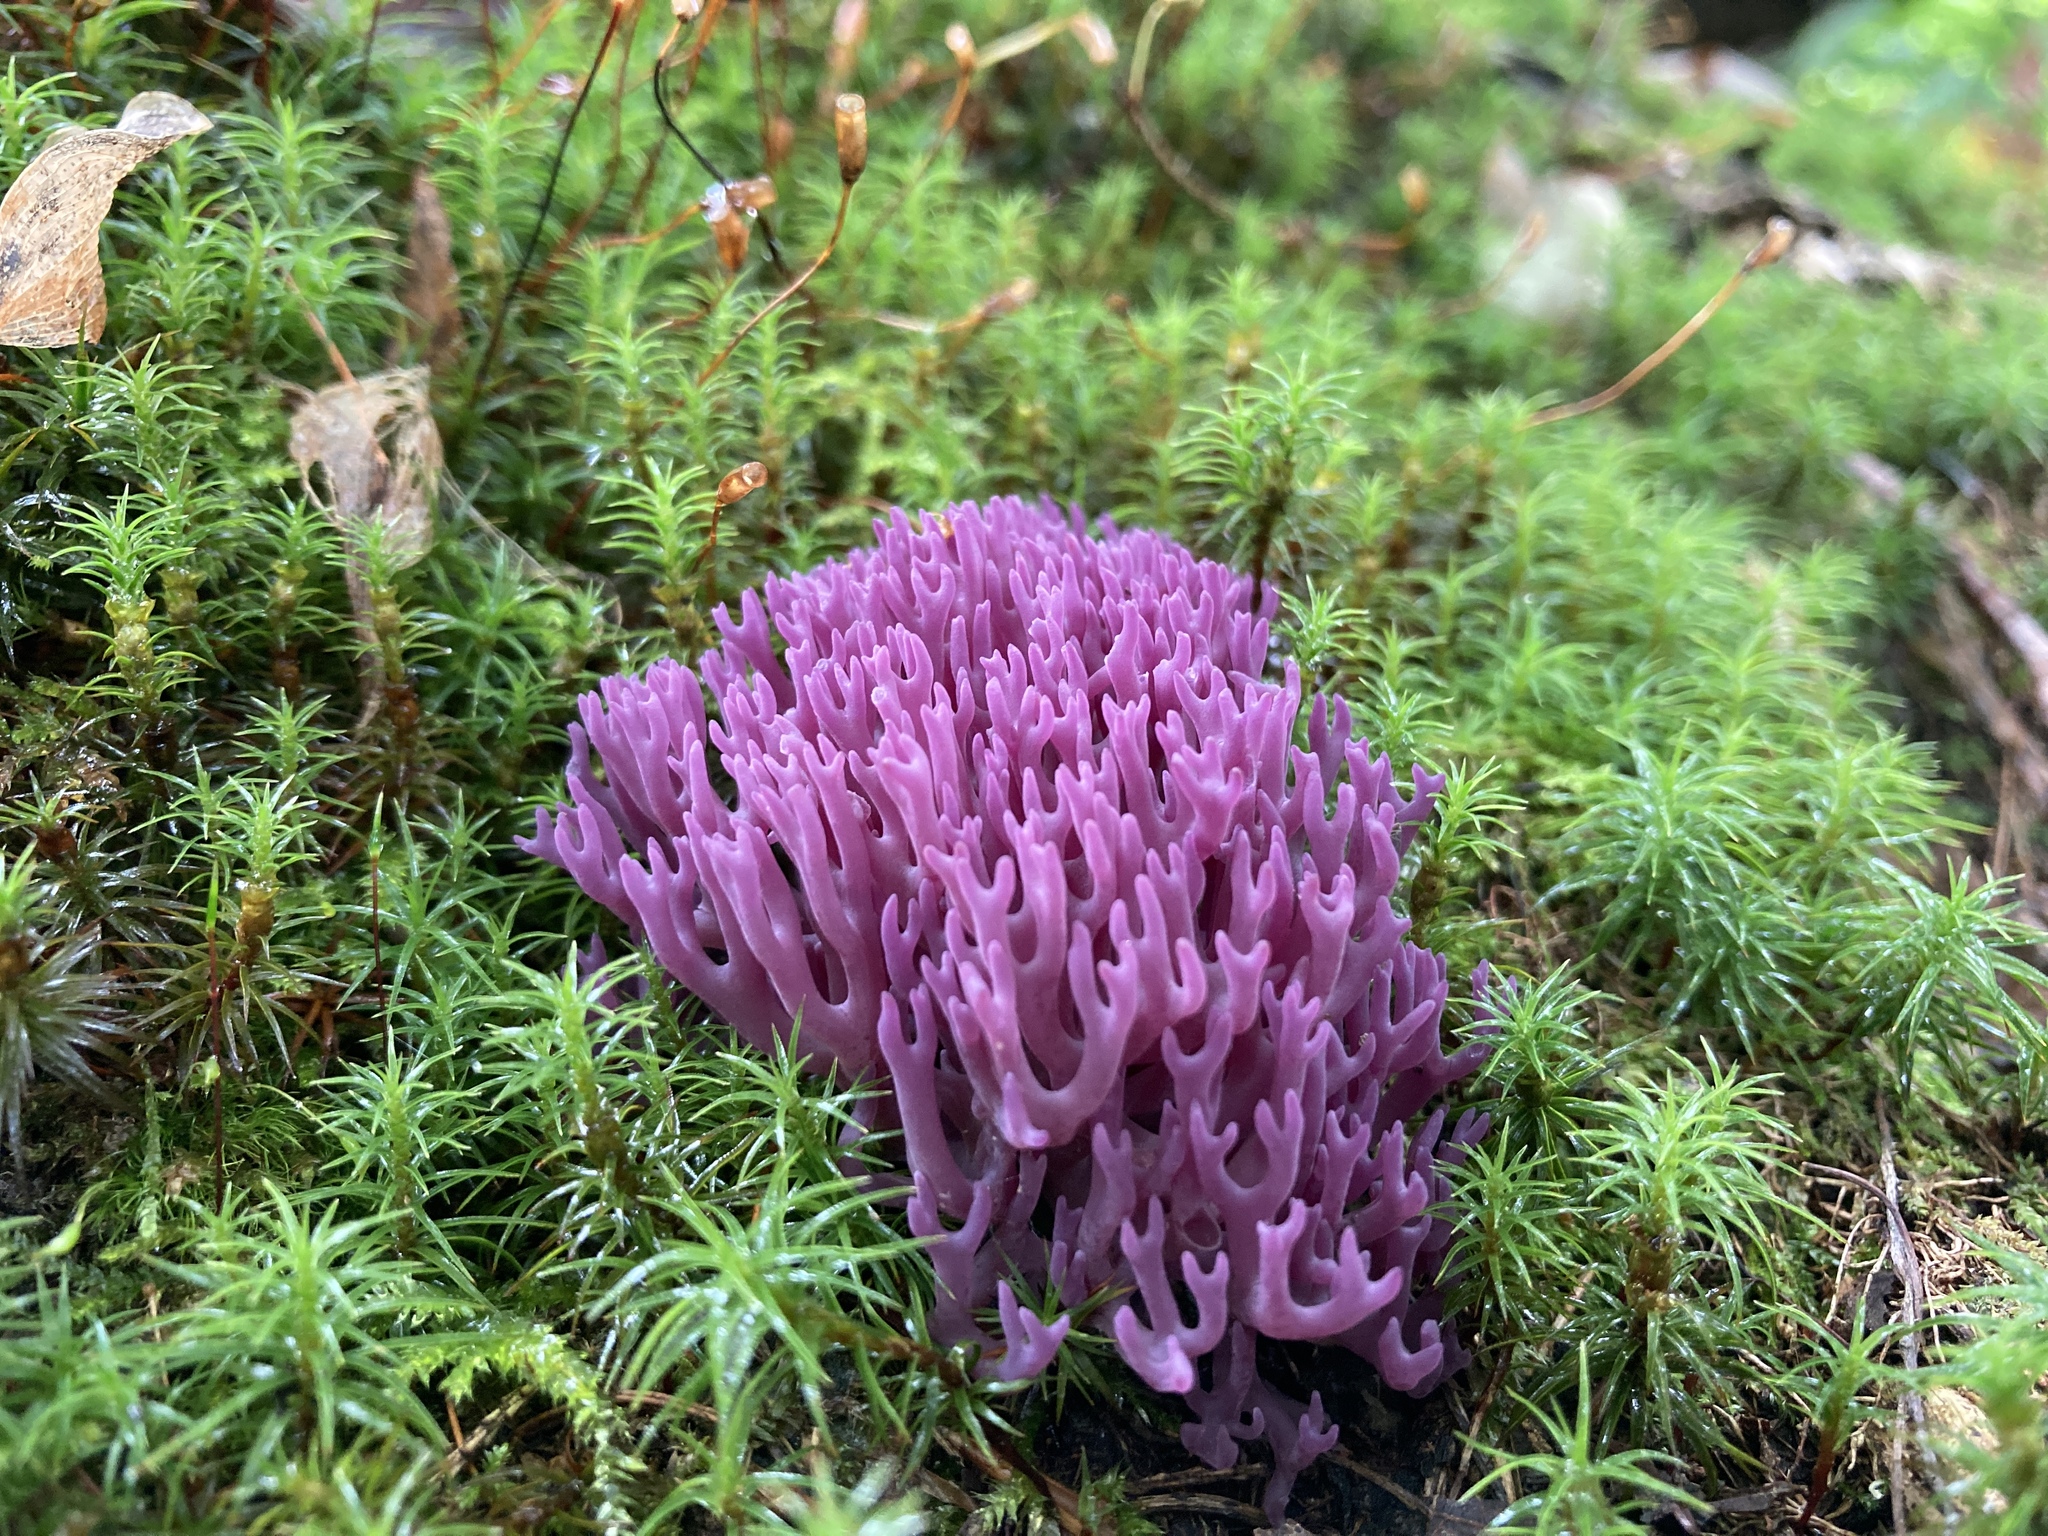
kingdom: Fungi
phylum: Basidiomycota
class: Agaricomycetes
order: Agaricales
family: Clavariaceae
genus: Clavaria
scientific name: Clavaria zollingeri
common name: Violet coral
